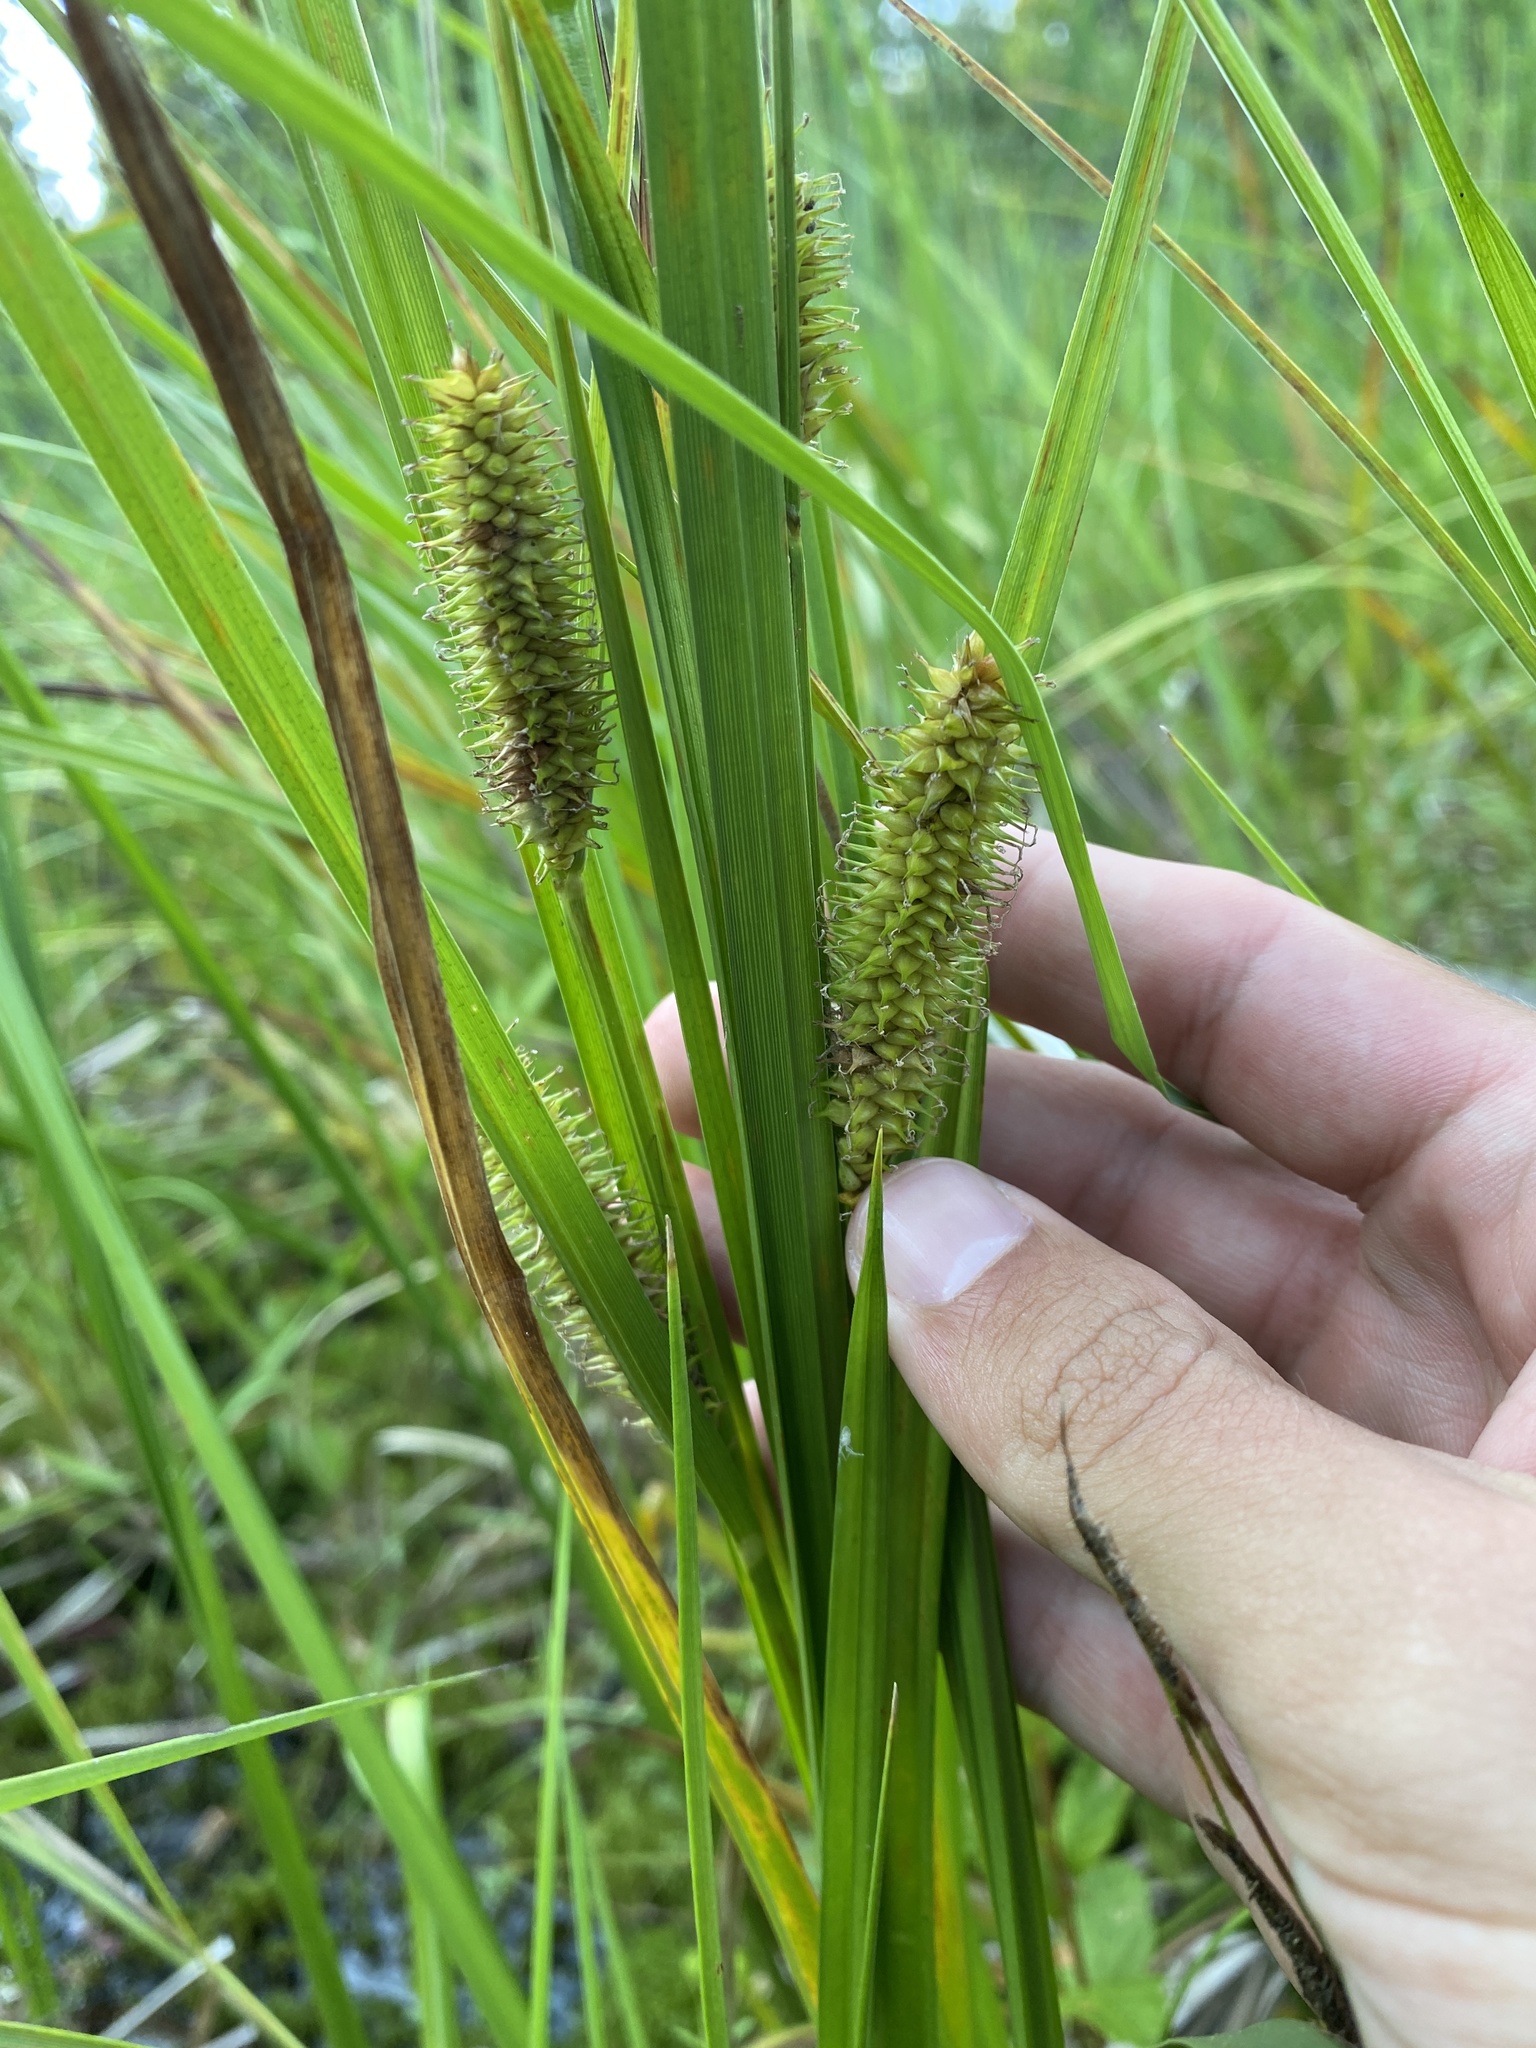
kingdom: Plantae
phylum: Tracheophyta
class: Liliopsida
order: Poales
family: Cyperaceae
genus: Carex
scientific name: Carex utriculata
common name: Beaked sedge
